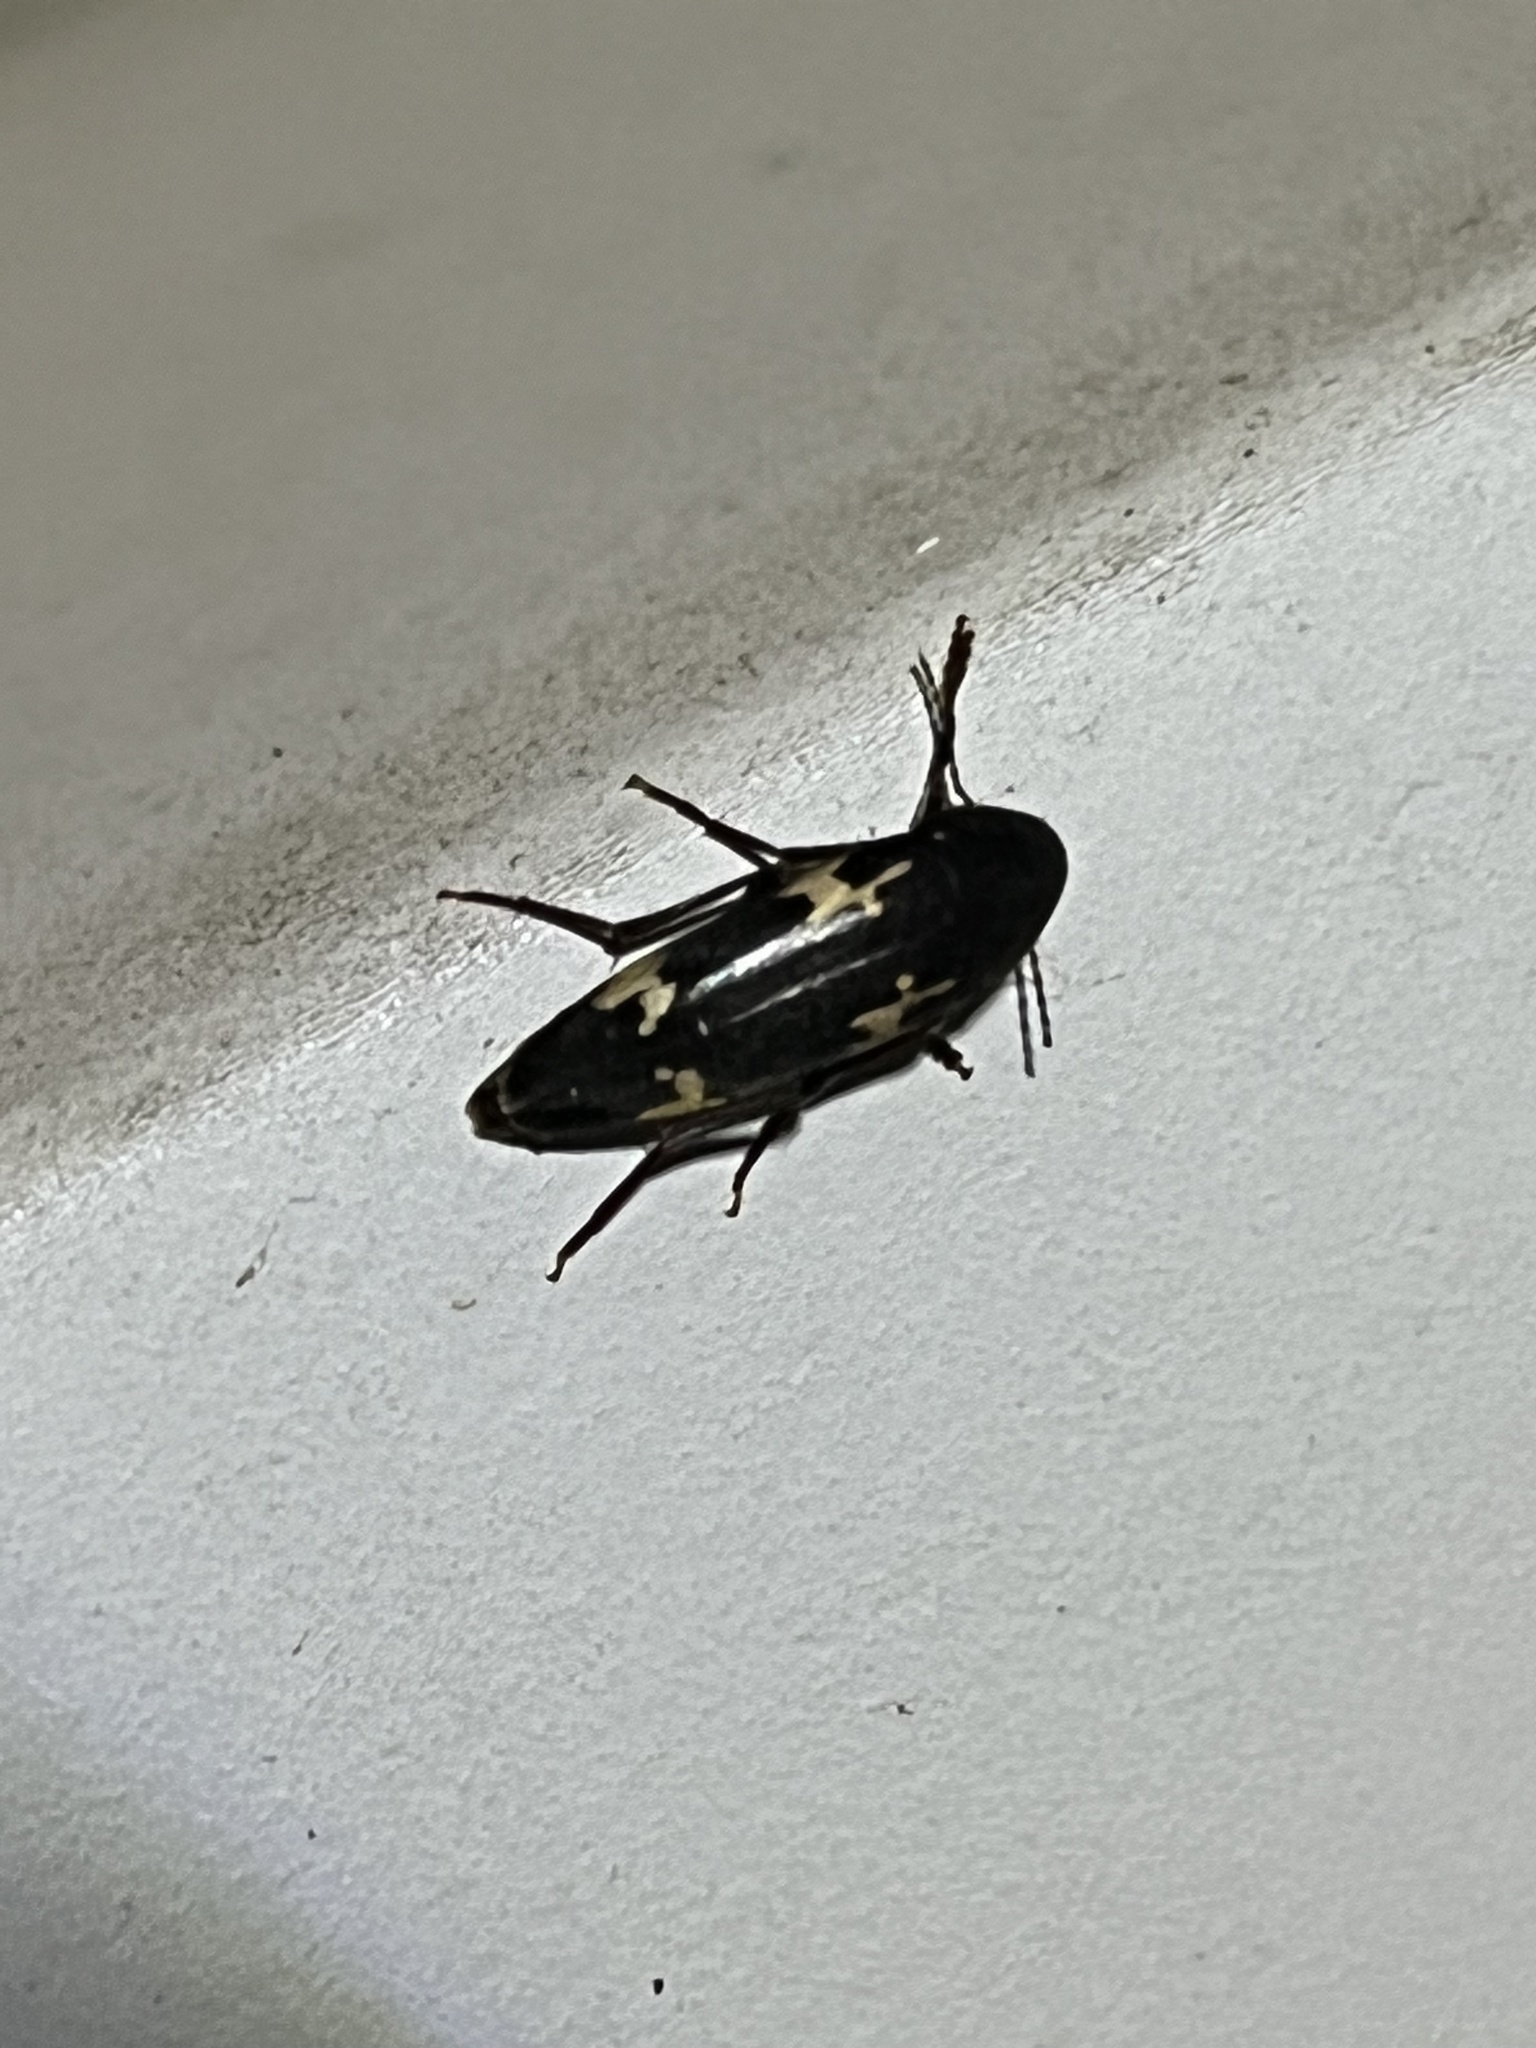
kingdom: Animalia
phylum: Arthropoda
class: Insecta
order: Coleoptera
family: Melandryidae
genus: Dircaea
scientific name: Dircaea liturata
